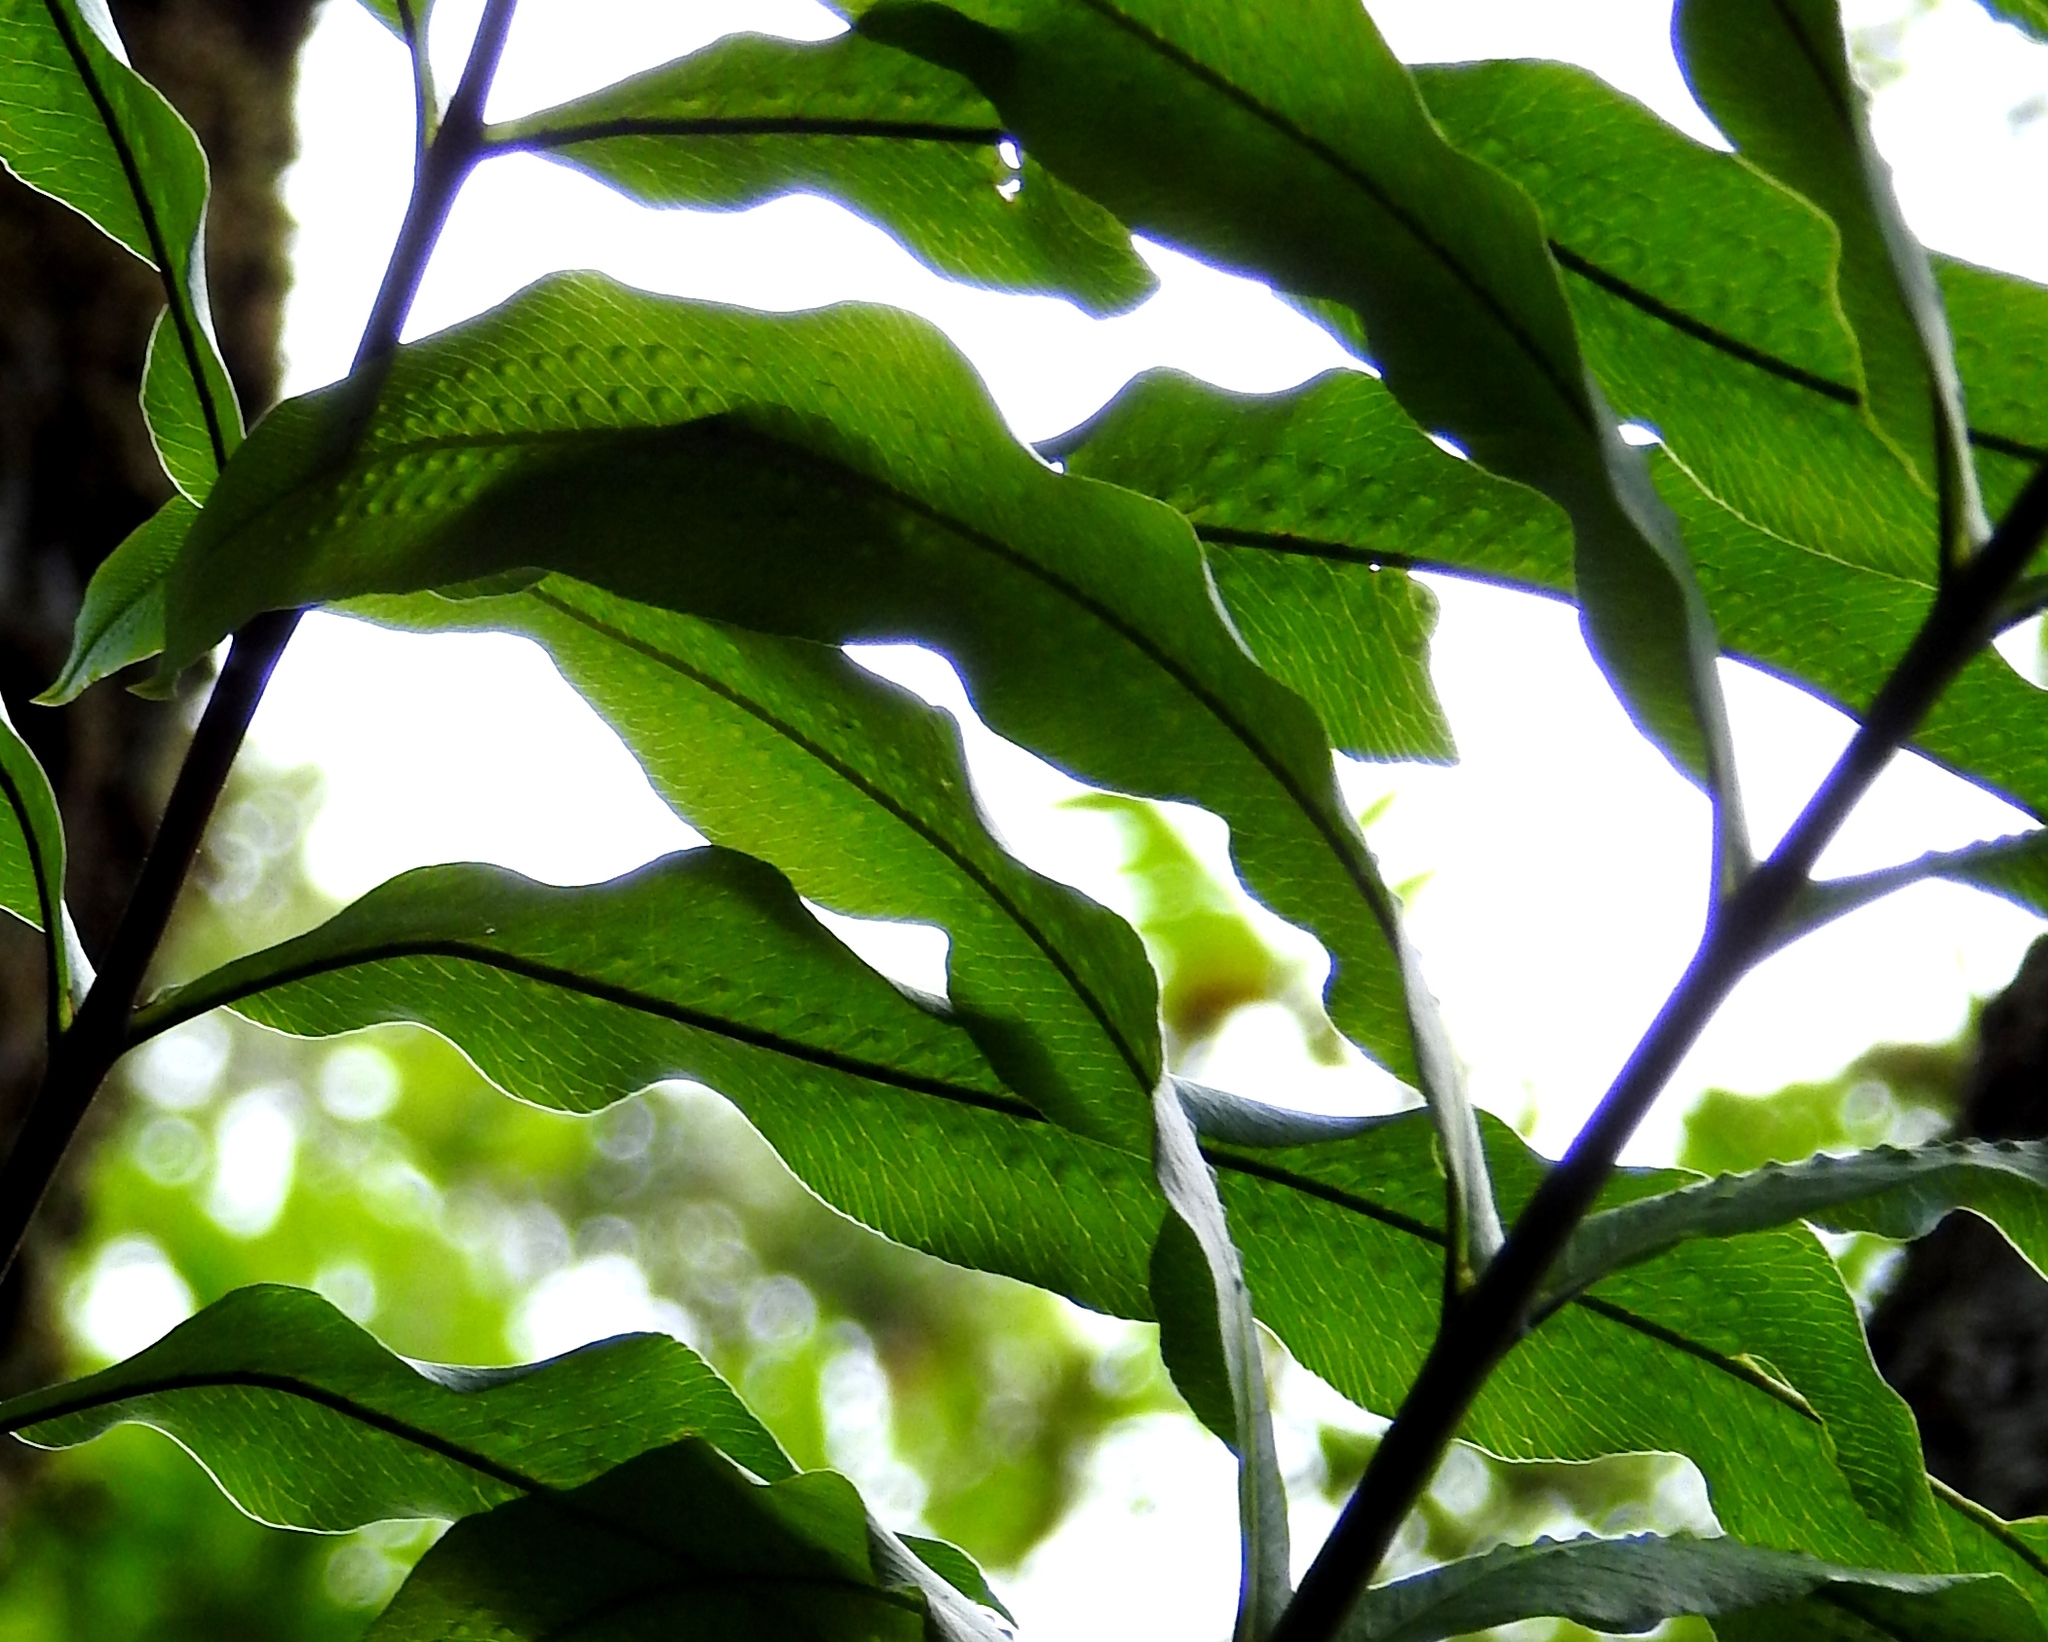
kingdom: Plantae
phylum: Tracheophyta
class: Polypodiopsida
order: Polypodiales
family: Polypodiaceae
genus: Serpocaulon
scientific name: Serpocaulon triseriale
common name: Angle-vein fern
